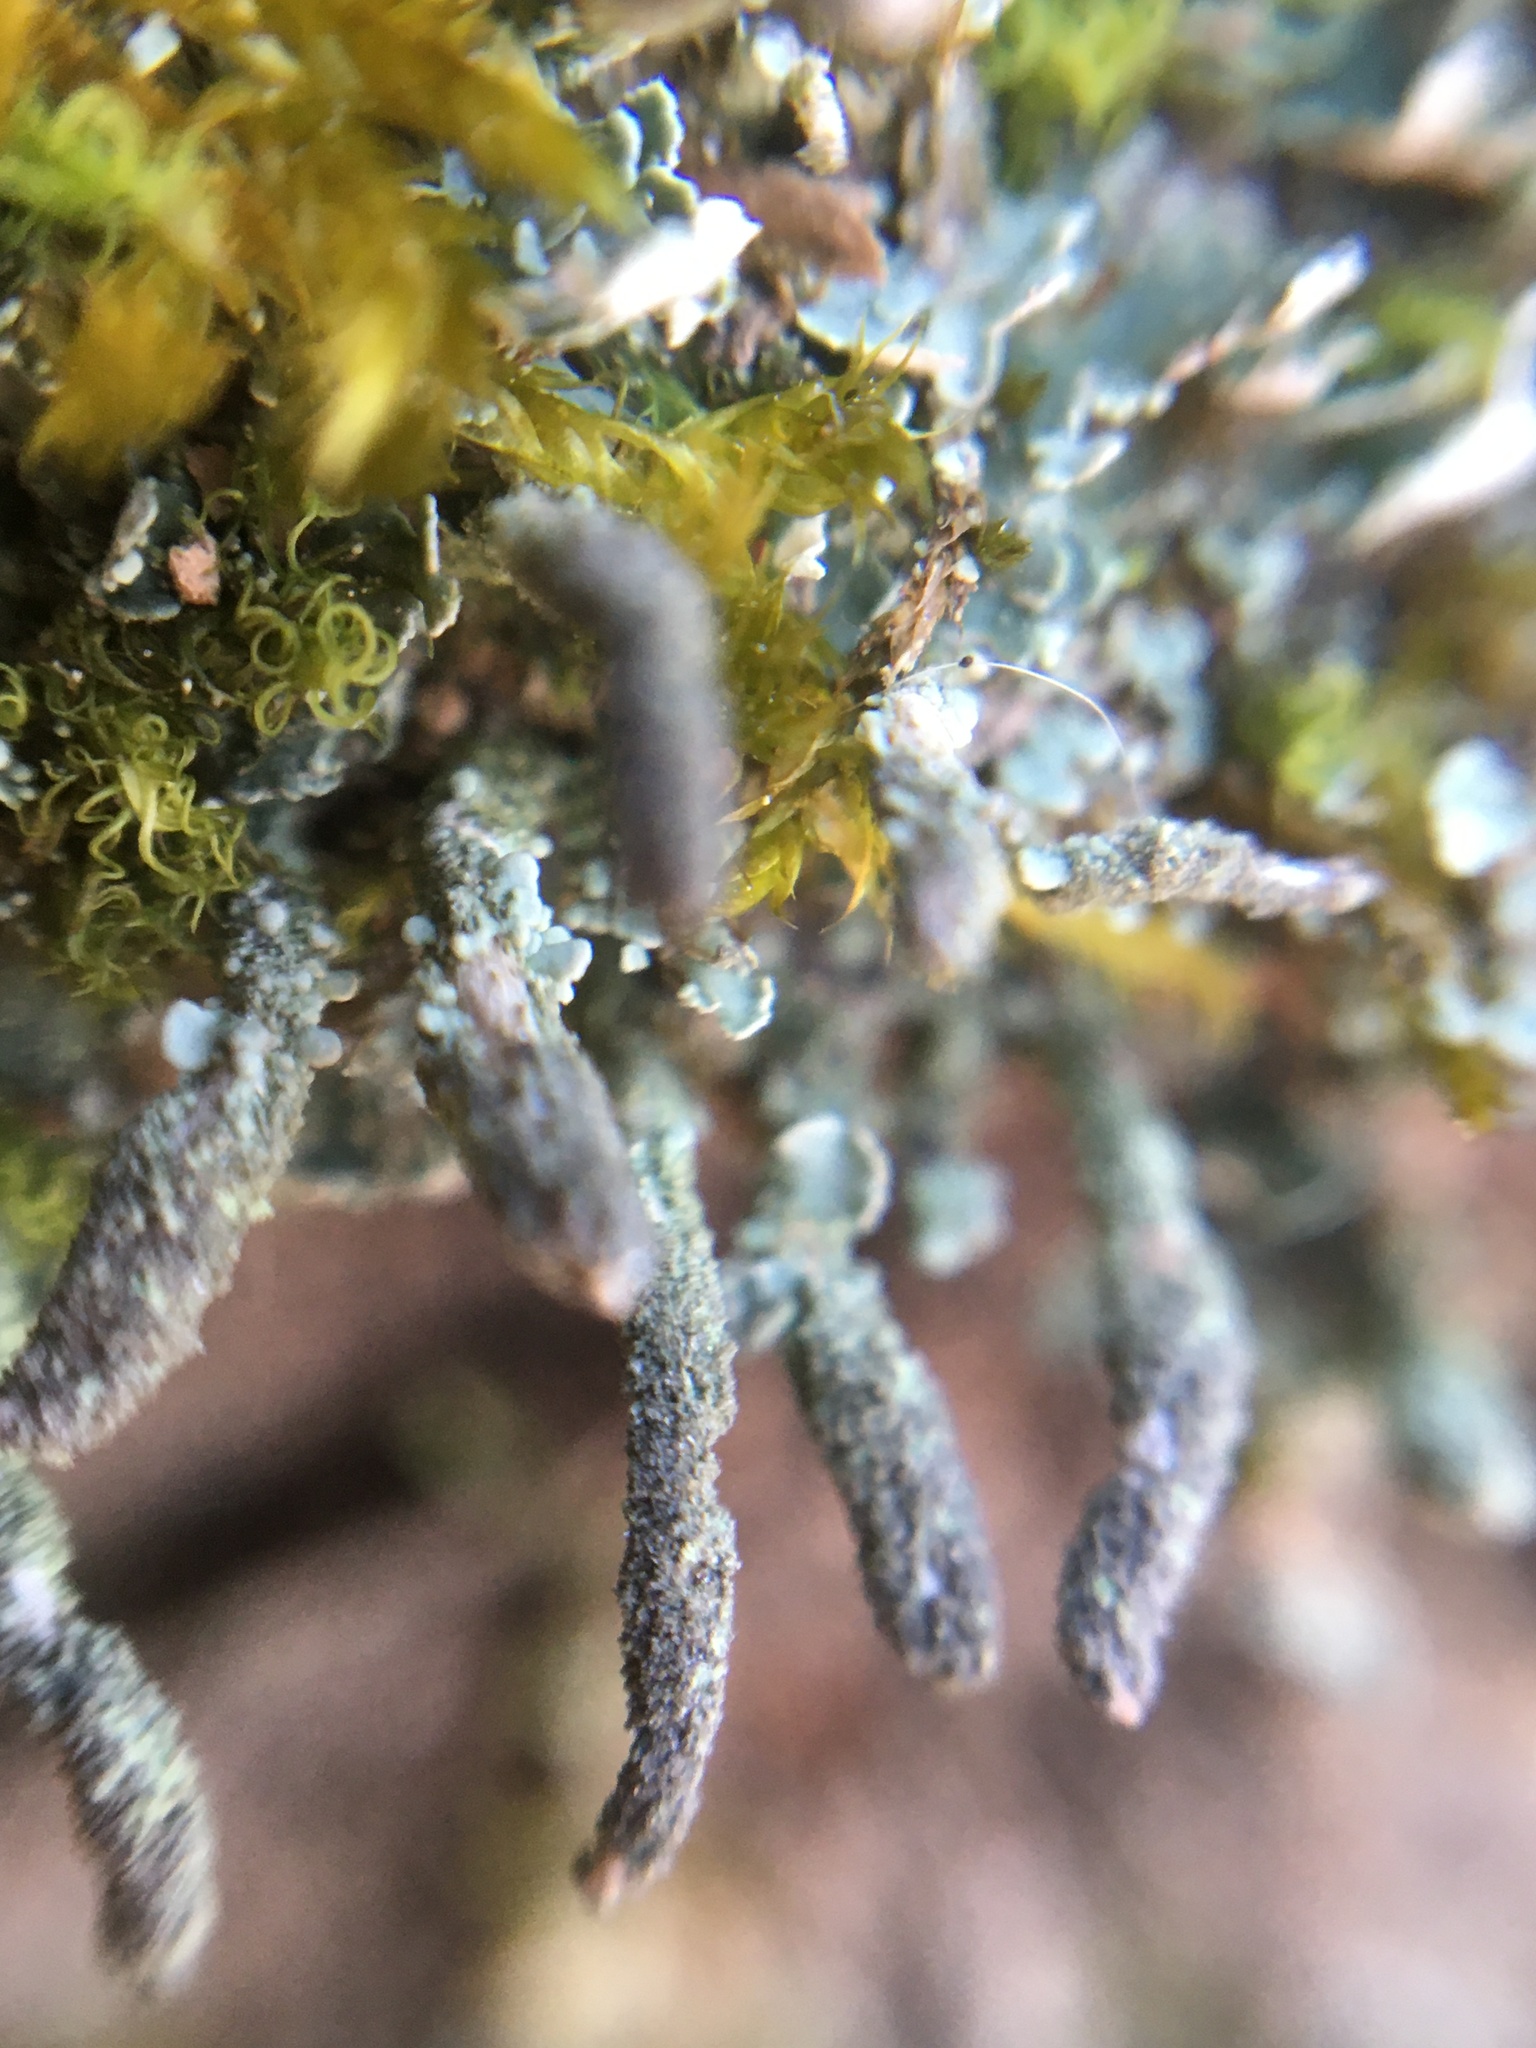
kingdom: Fungi
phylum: Ascomycota
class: Lecanoromycetes
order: Lecanorales
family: Cladoniaceae
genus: Cladonia
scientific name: Cladonia coniocraea
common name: Common powderhorn
